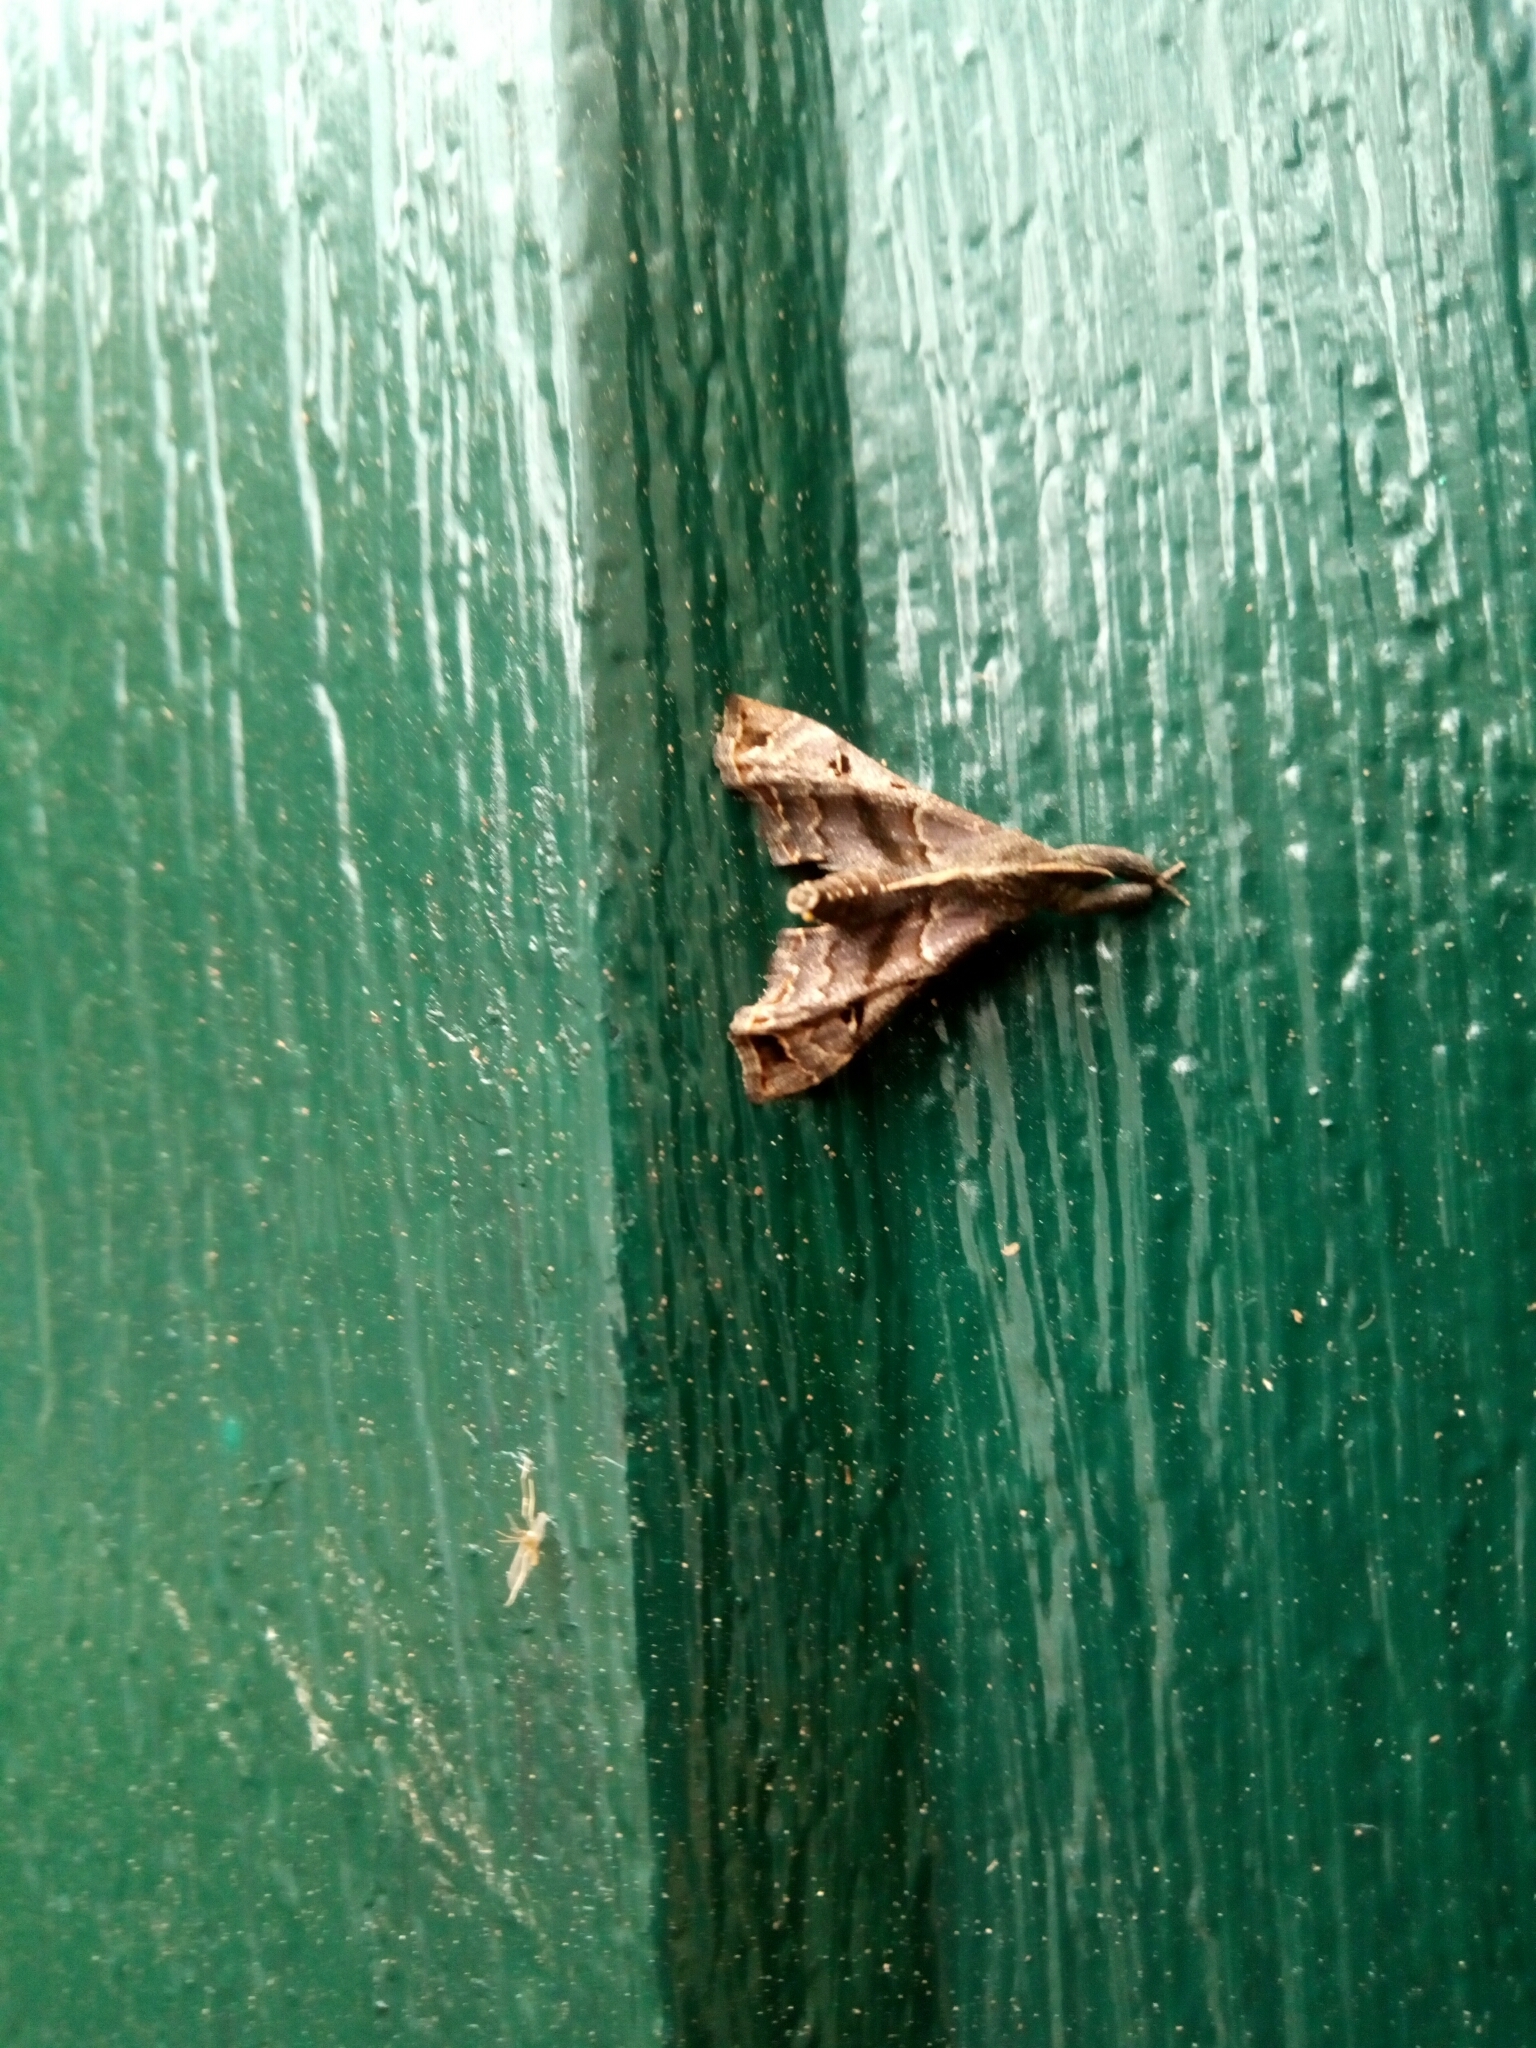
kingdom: Animalia
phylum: Arthropoda
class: Insecta
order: Lepidoptera
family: Erebidae
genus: Palthis
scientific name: Palthis asopialis
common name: Faint-spotted palthis moth
